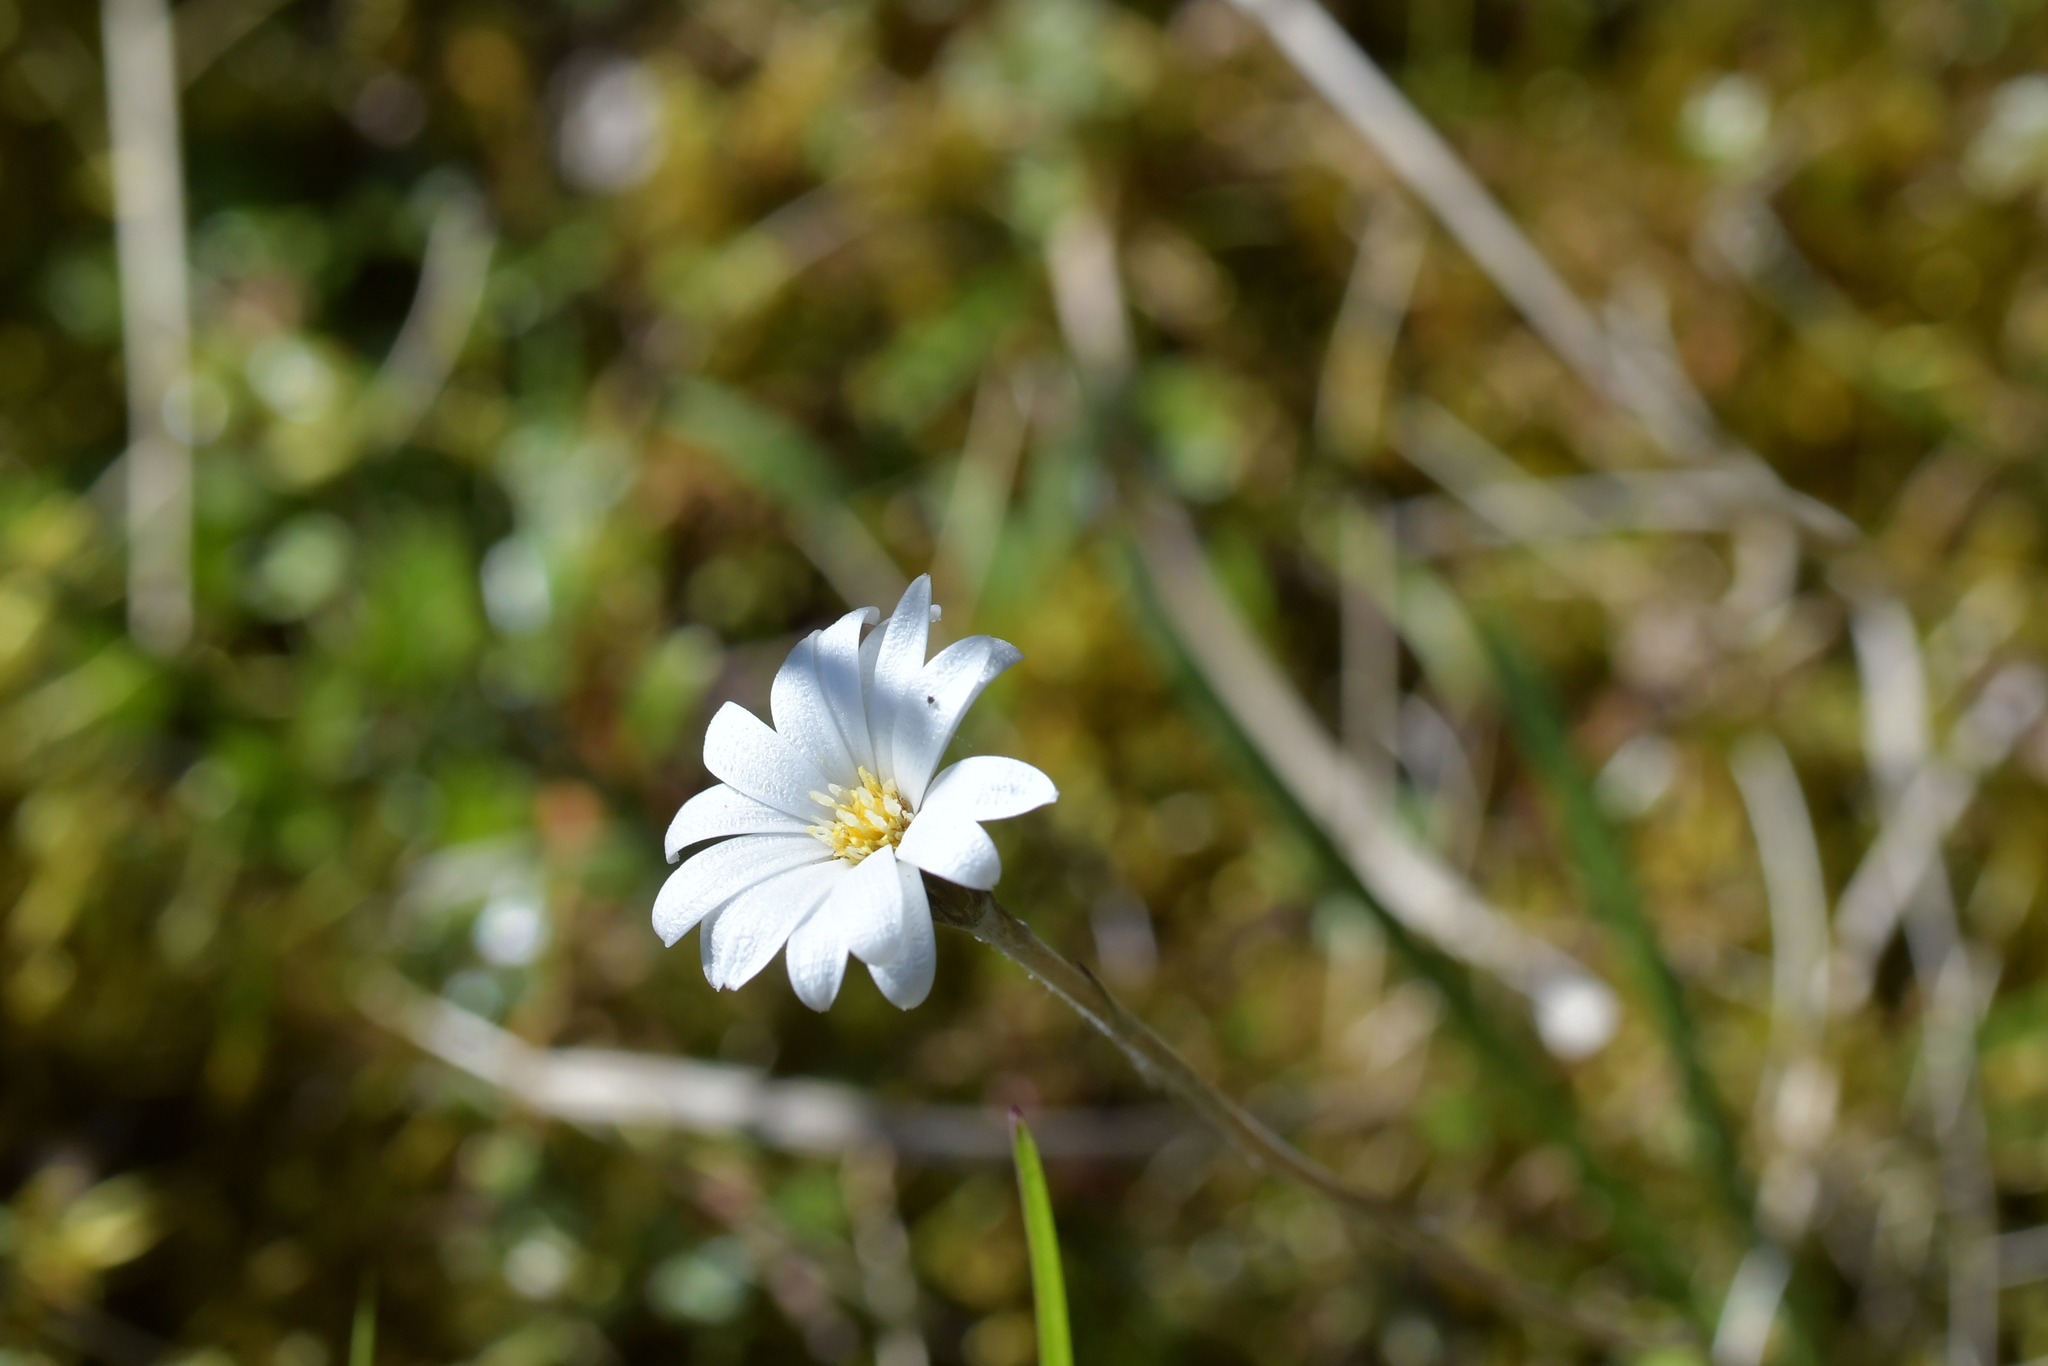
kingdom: Plantae
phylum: Tracheophyta
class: Magnoliopsida
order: Asterales
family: Asteraceae
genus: Celmisia
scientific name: Celmisia gracilenta
